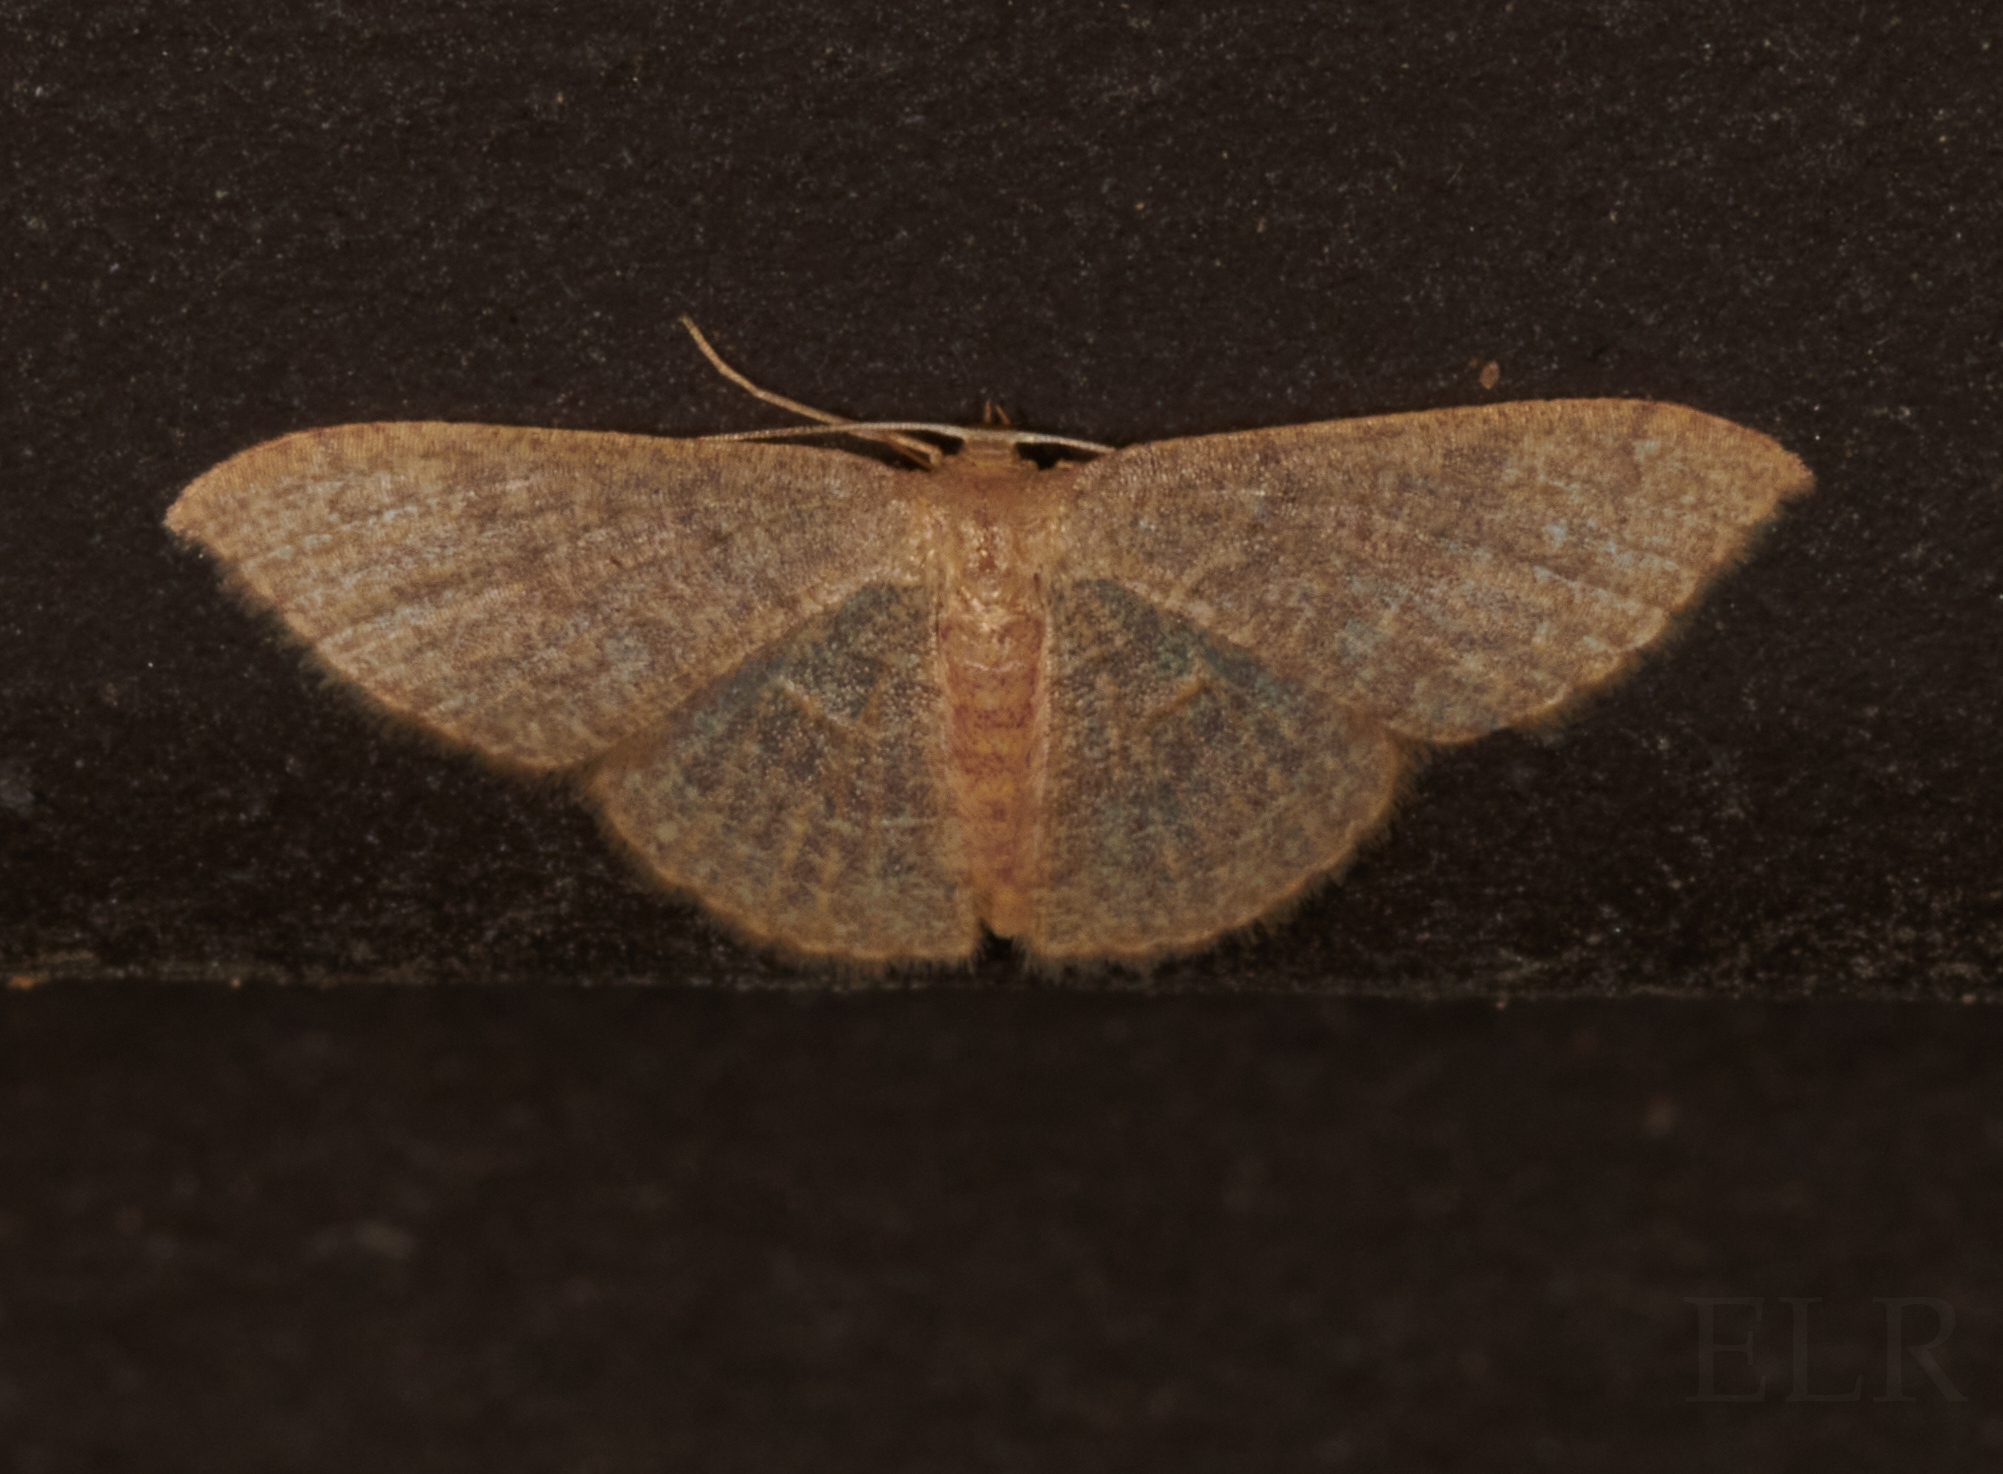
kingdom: Animalia
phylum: Arthropoda
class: Insecta
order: Lepidoptera
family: Geometridae
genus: Pleuroprucha
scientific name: Pleuroprucha insulsaria
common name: Common tan wave
